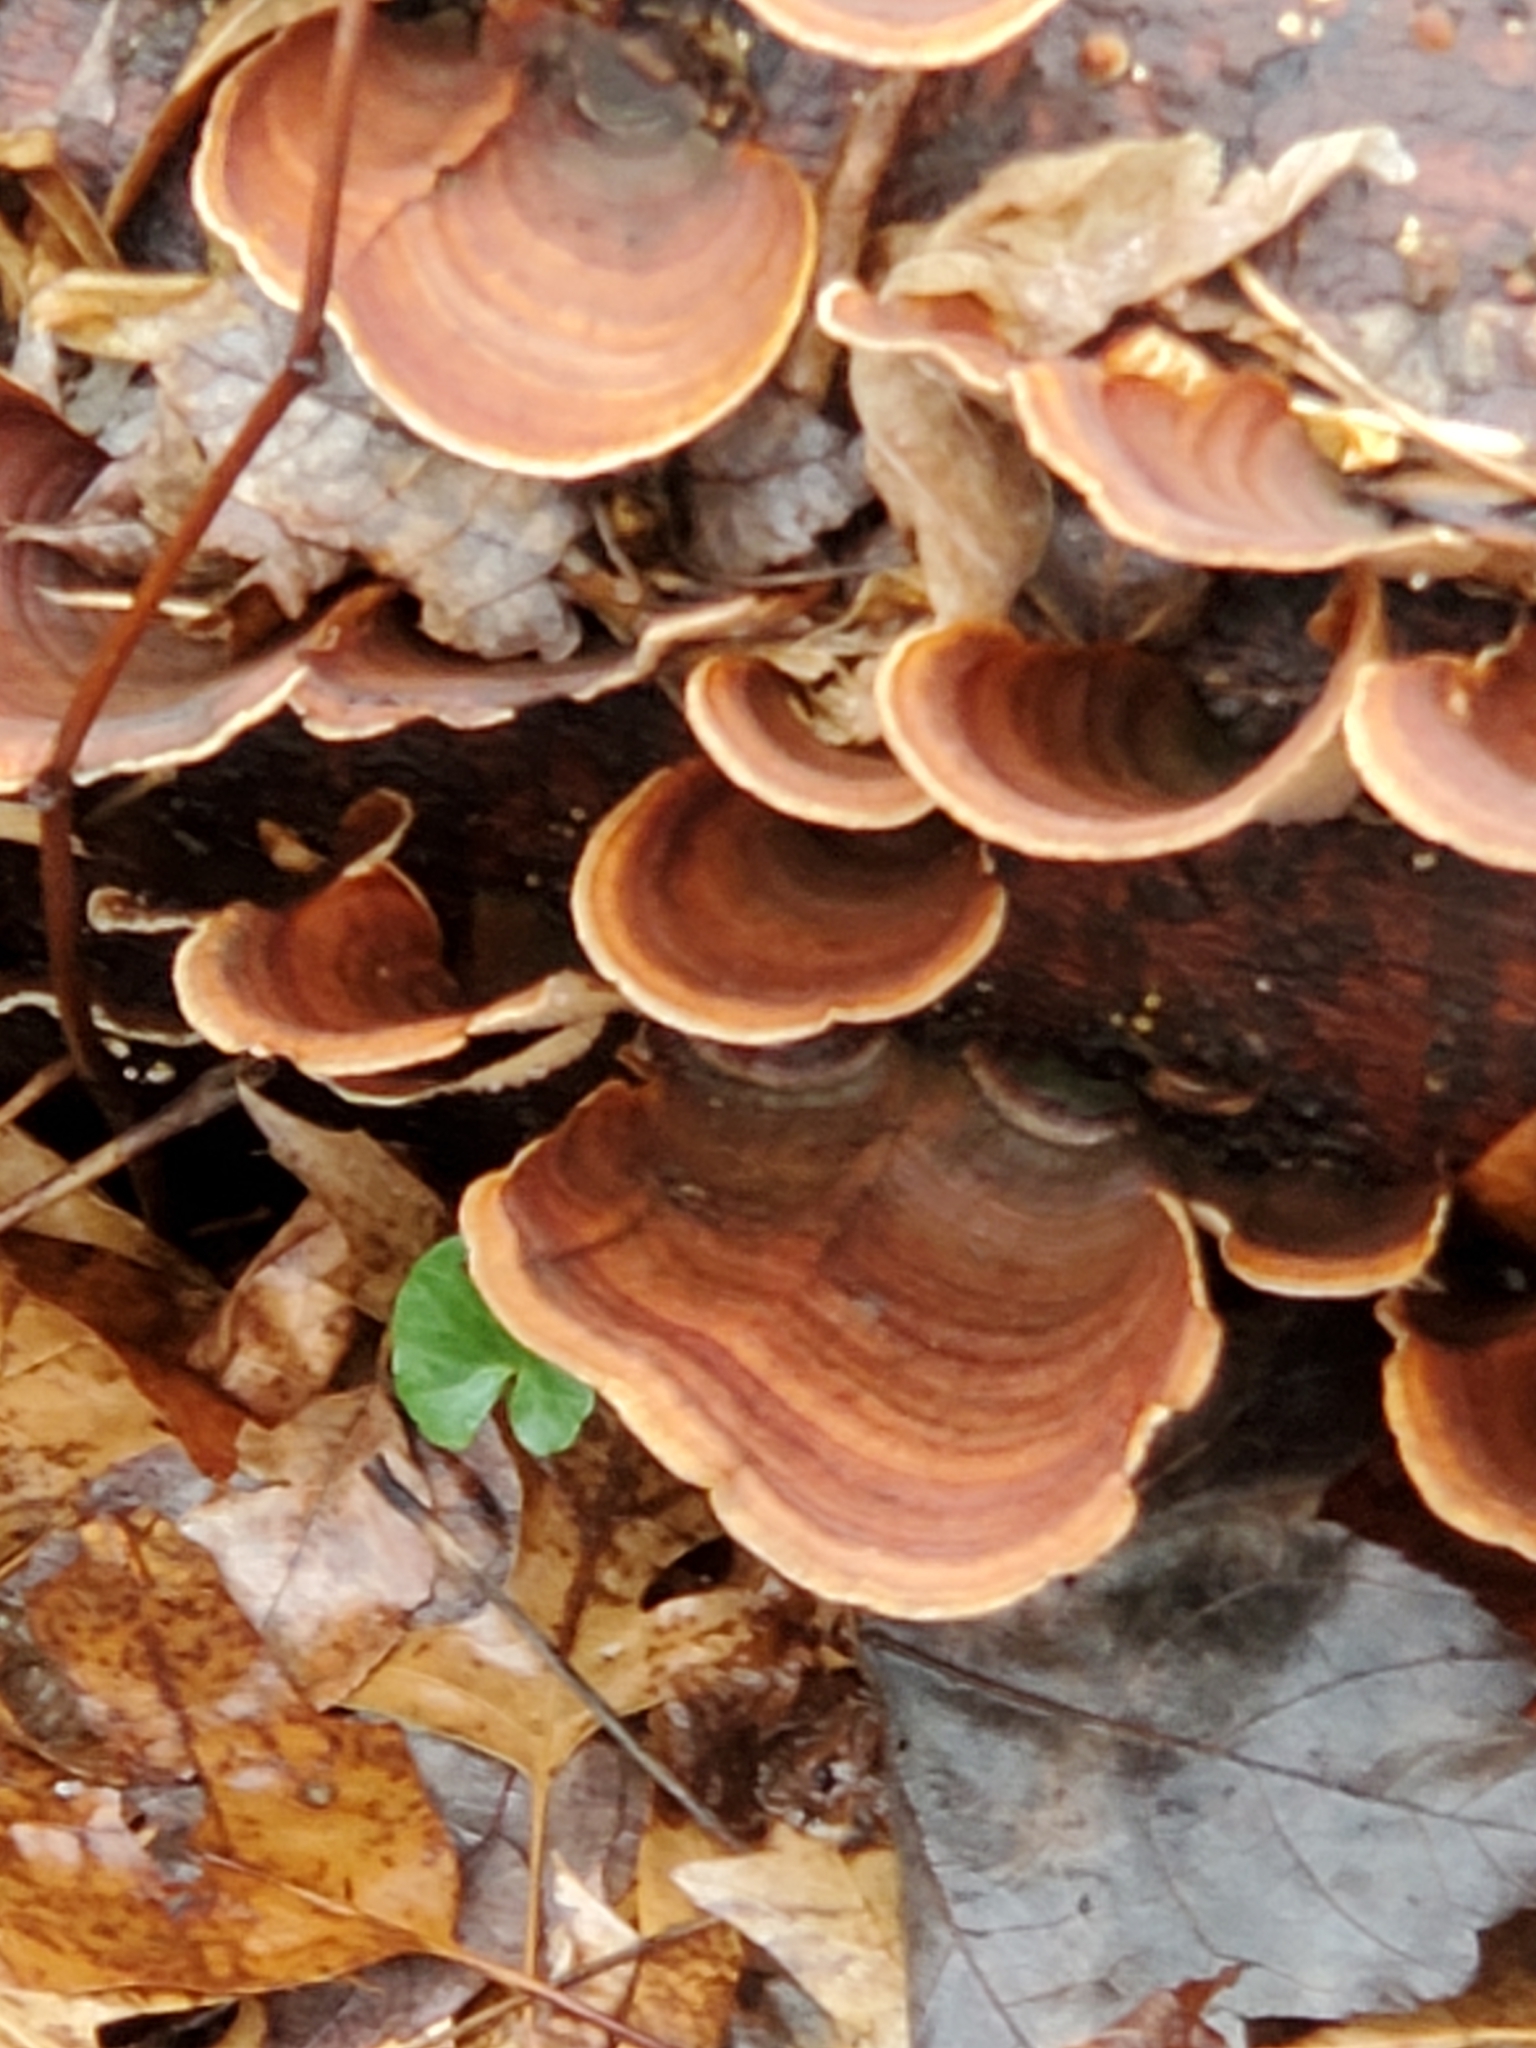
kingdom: Fungi
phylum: Basidiomycota
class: Agaricomycetes
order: Russulales
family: Stereaceae
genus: Stereum
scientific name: Stereum lobatum
